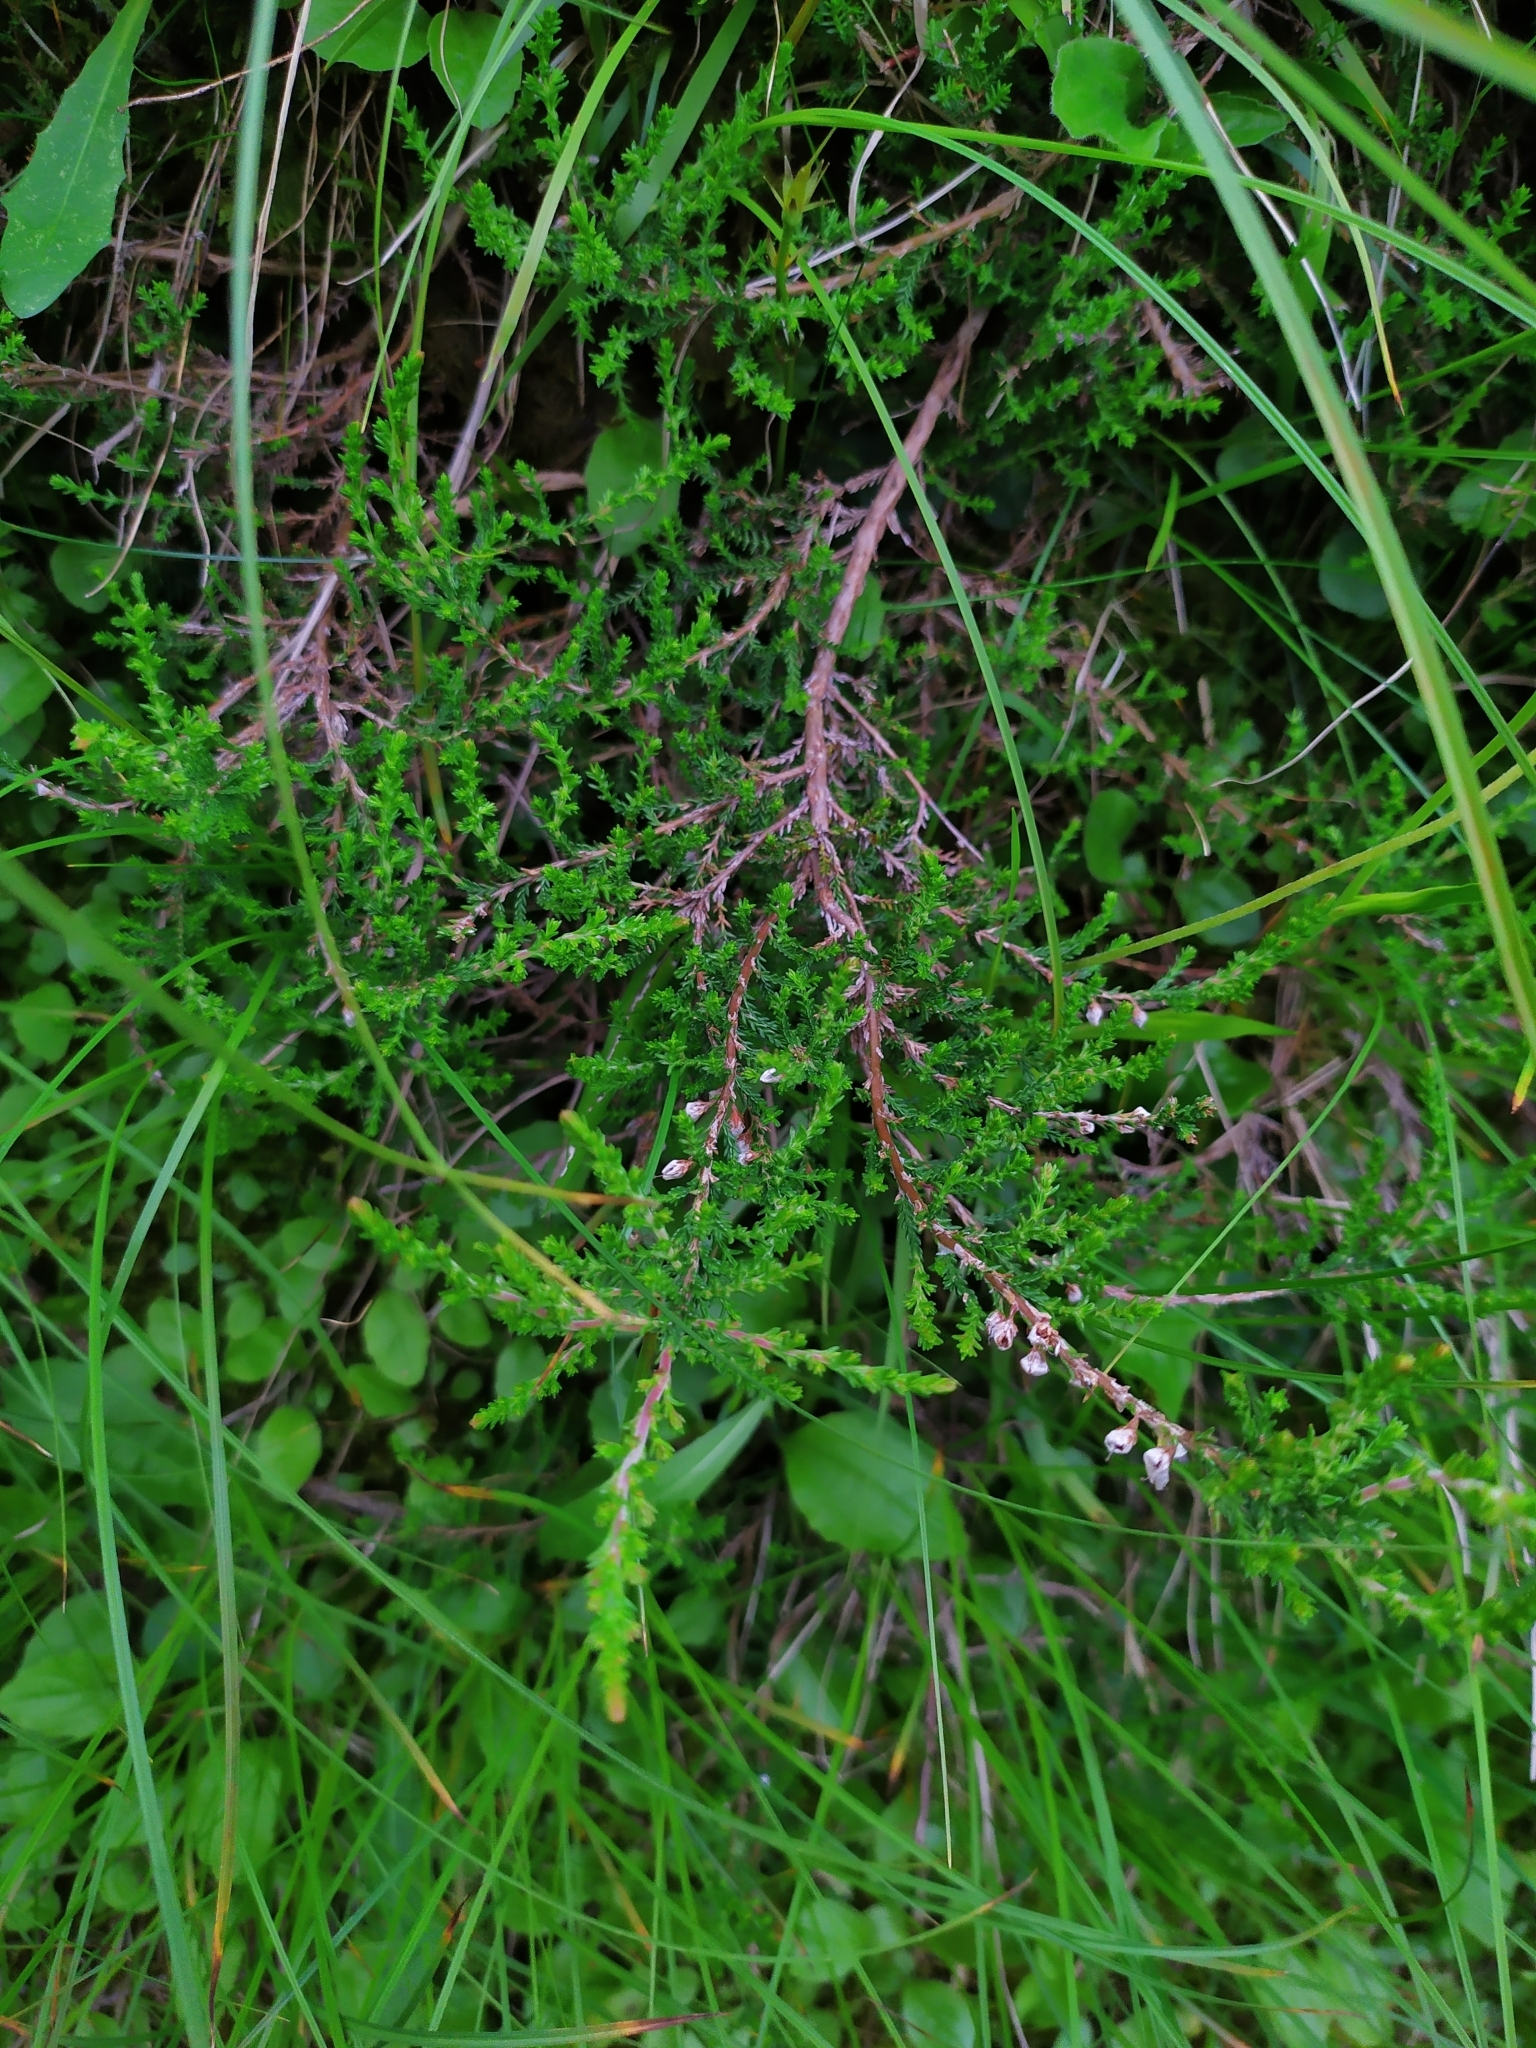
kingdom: Plantae
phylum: Tracheophyta
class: Magnoliopsida
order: Ericales
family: Ericaceae
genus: Calluna
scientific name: Calluna vulgaris
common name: Heather
